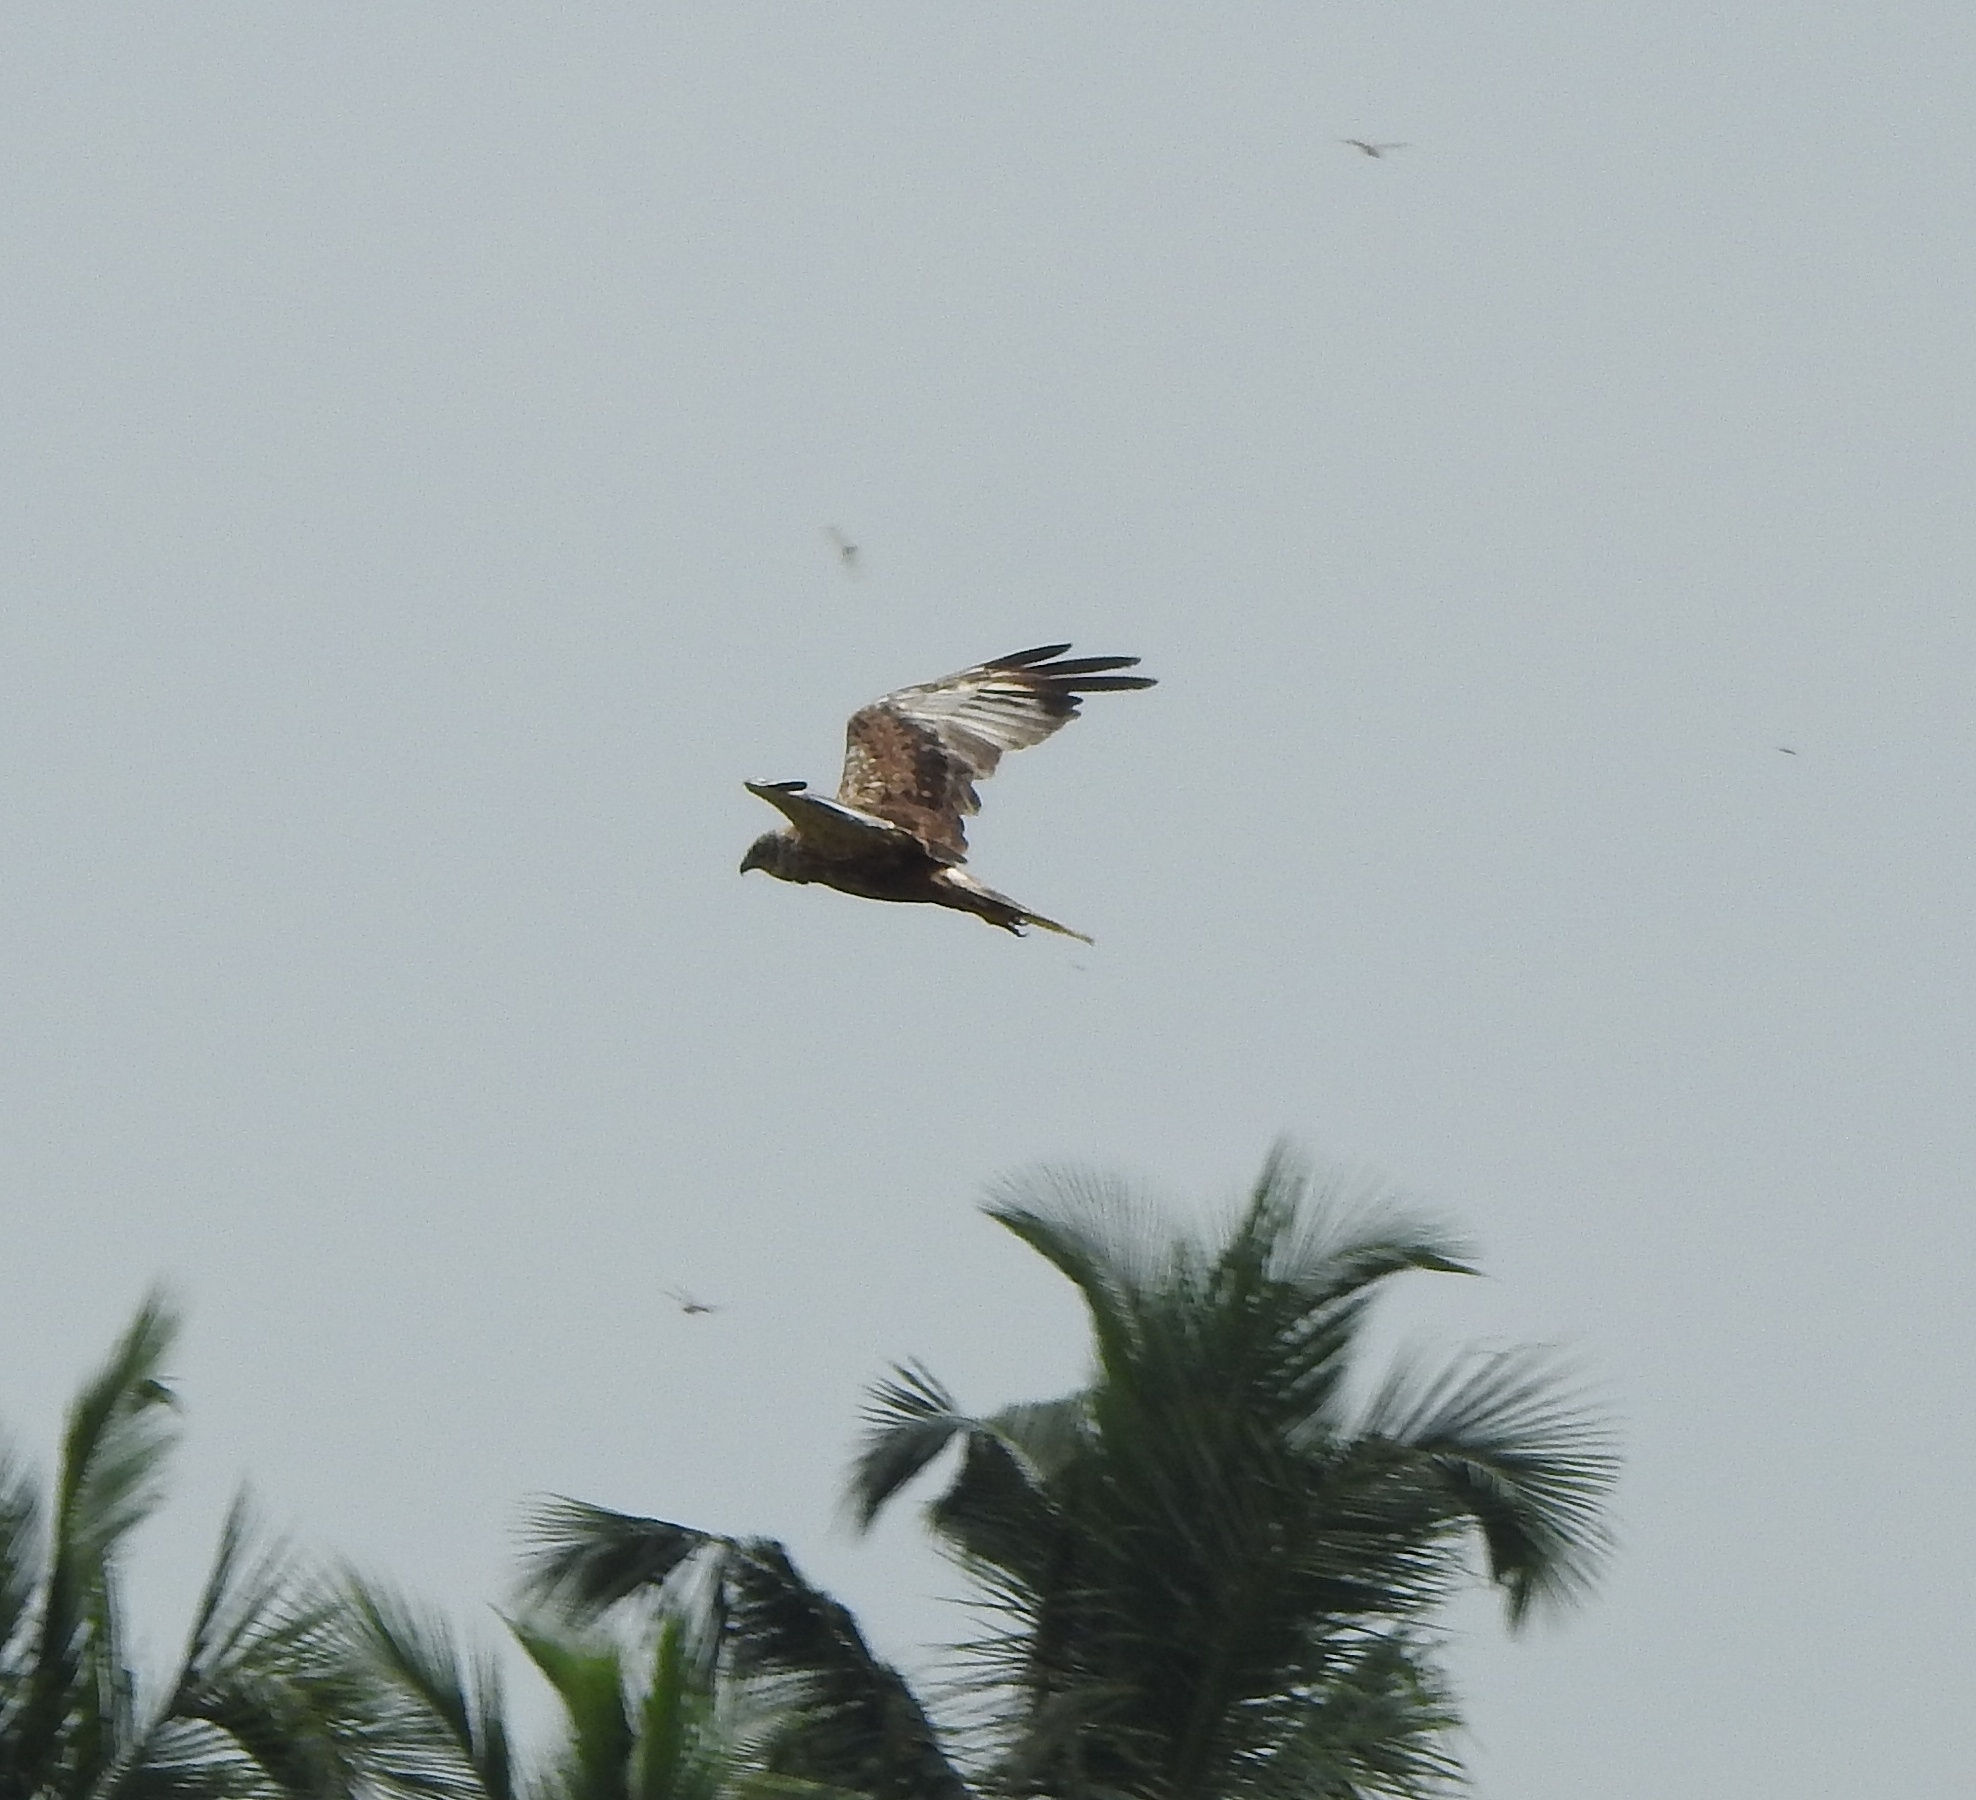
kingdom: Animalia
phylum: Chordata
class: Aves
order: Accipitriformes
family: Accipitridae
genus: Circus
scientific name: Circus aeruginosus
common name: Western marsh harrier
